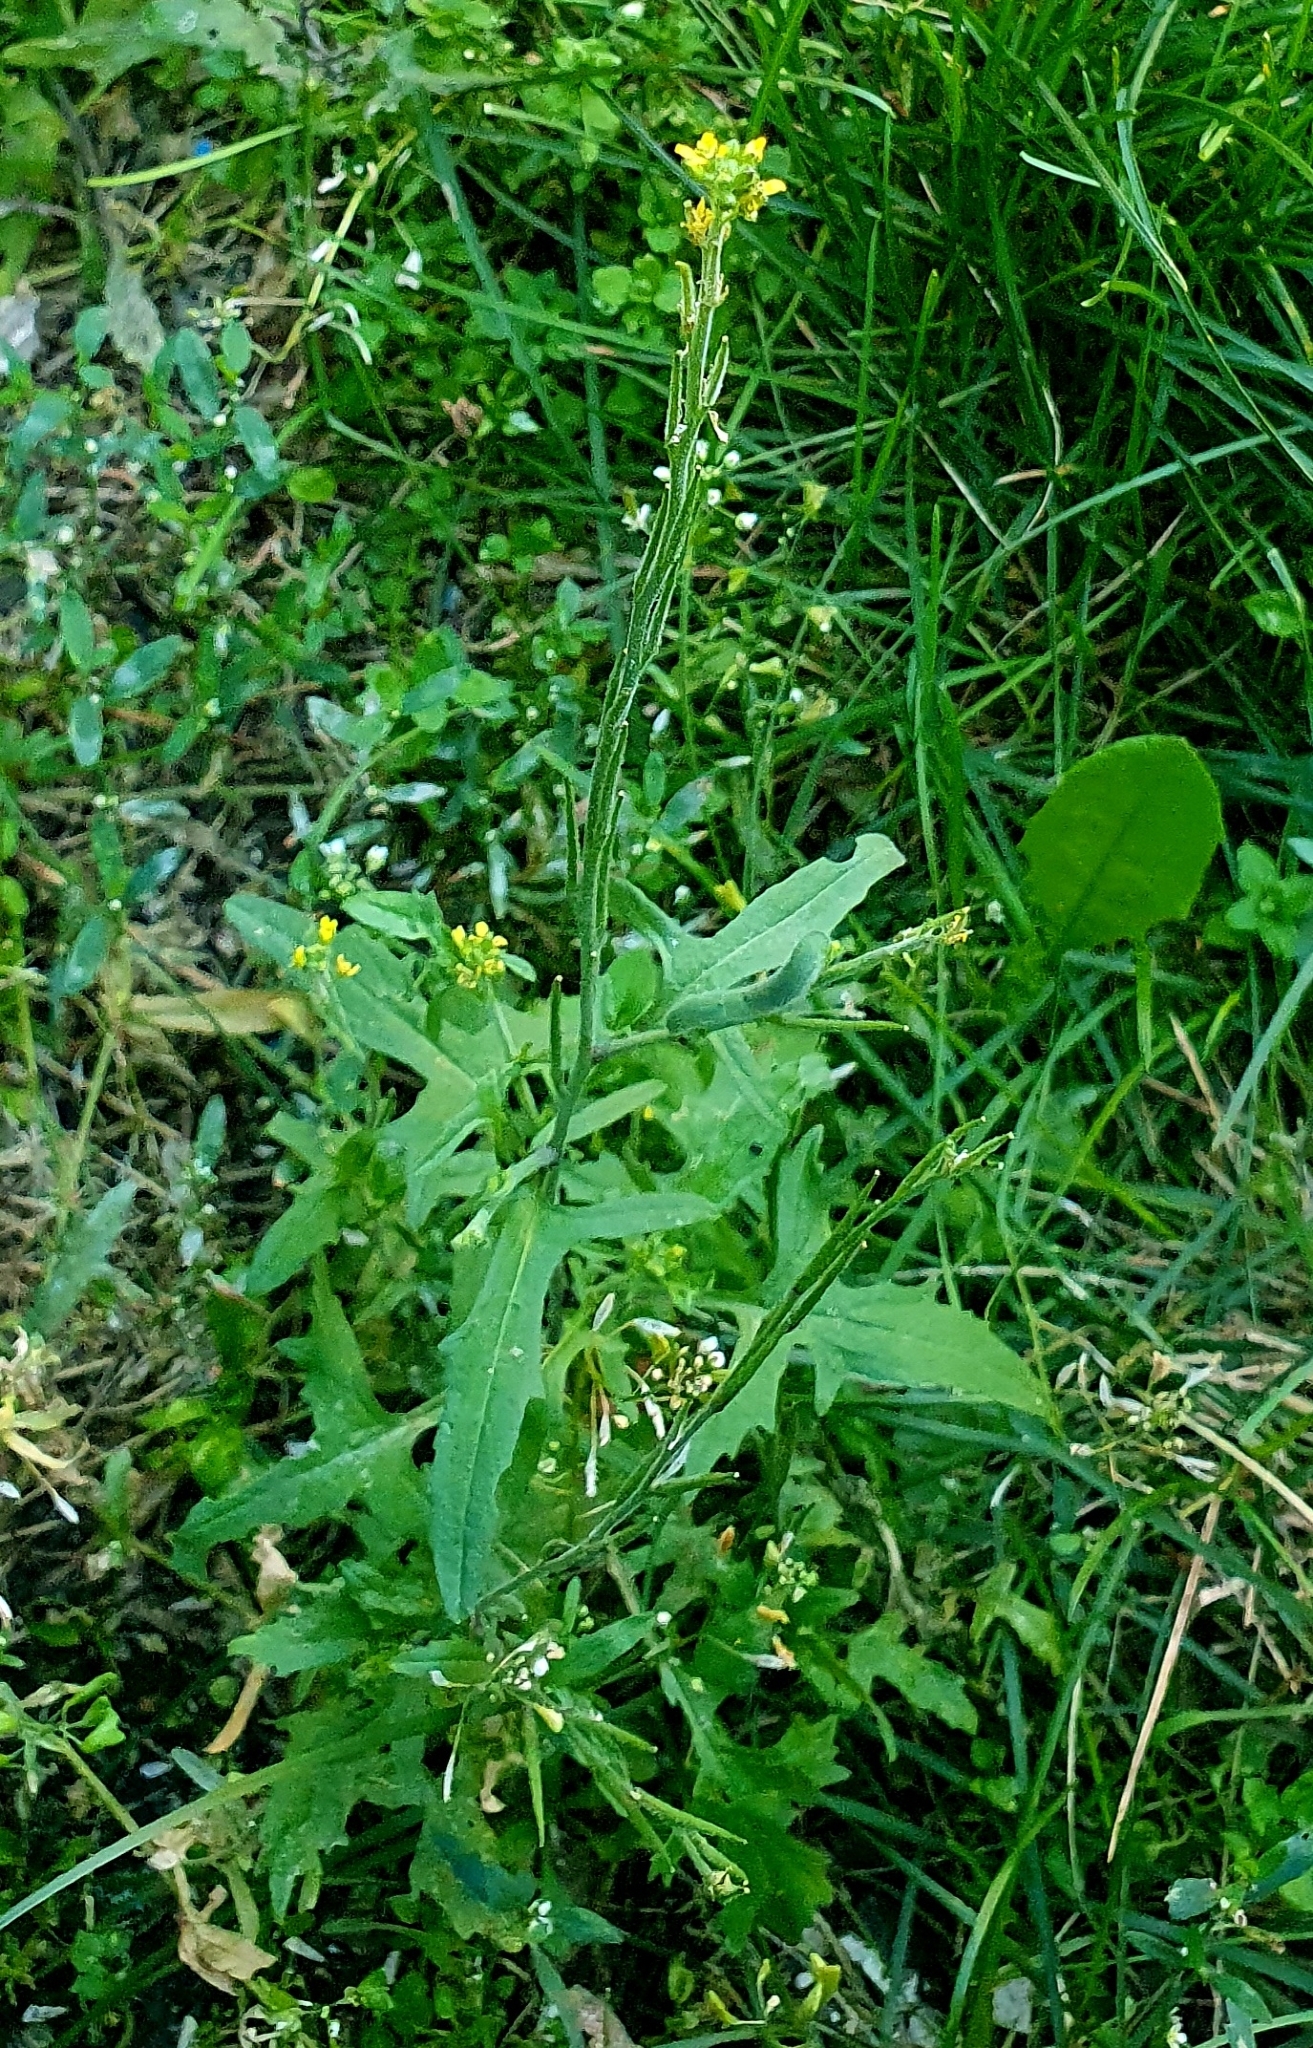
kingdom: Plantae
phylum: Tracheophyta
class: Magnoliopsida
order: Brassicales
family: Brassicaceae
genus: Sisymbrium
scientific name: Sisymbrium officinale
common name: Hedge mustard
